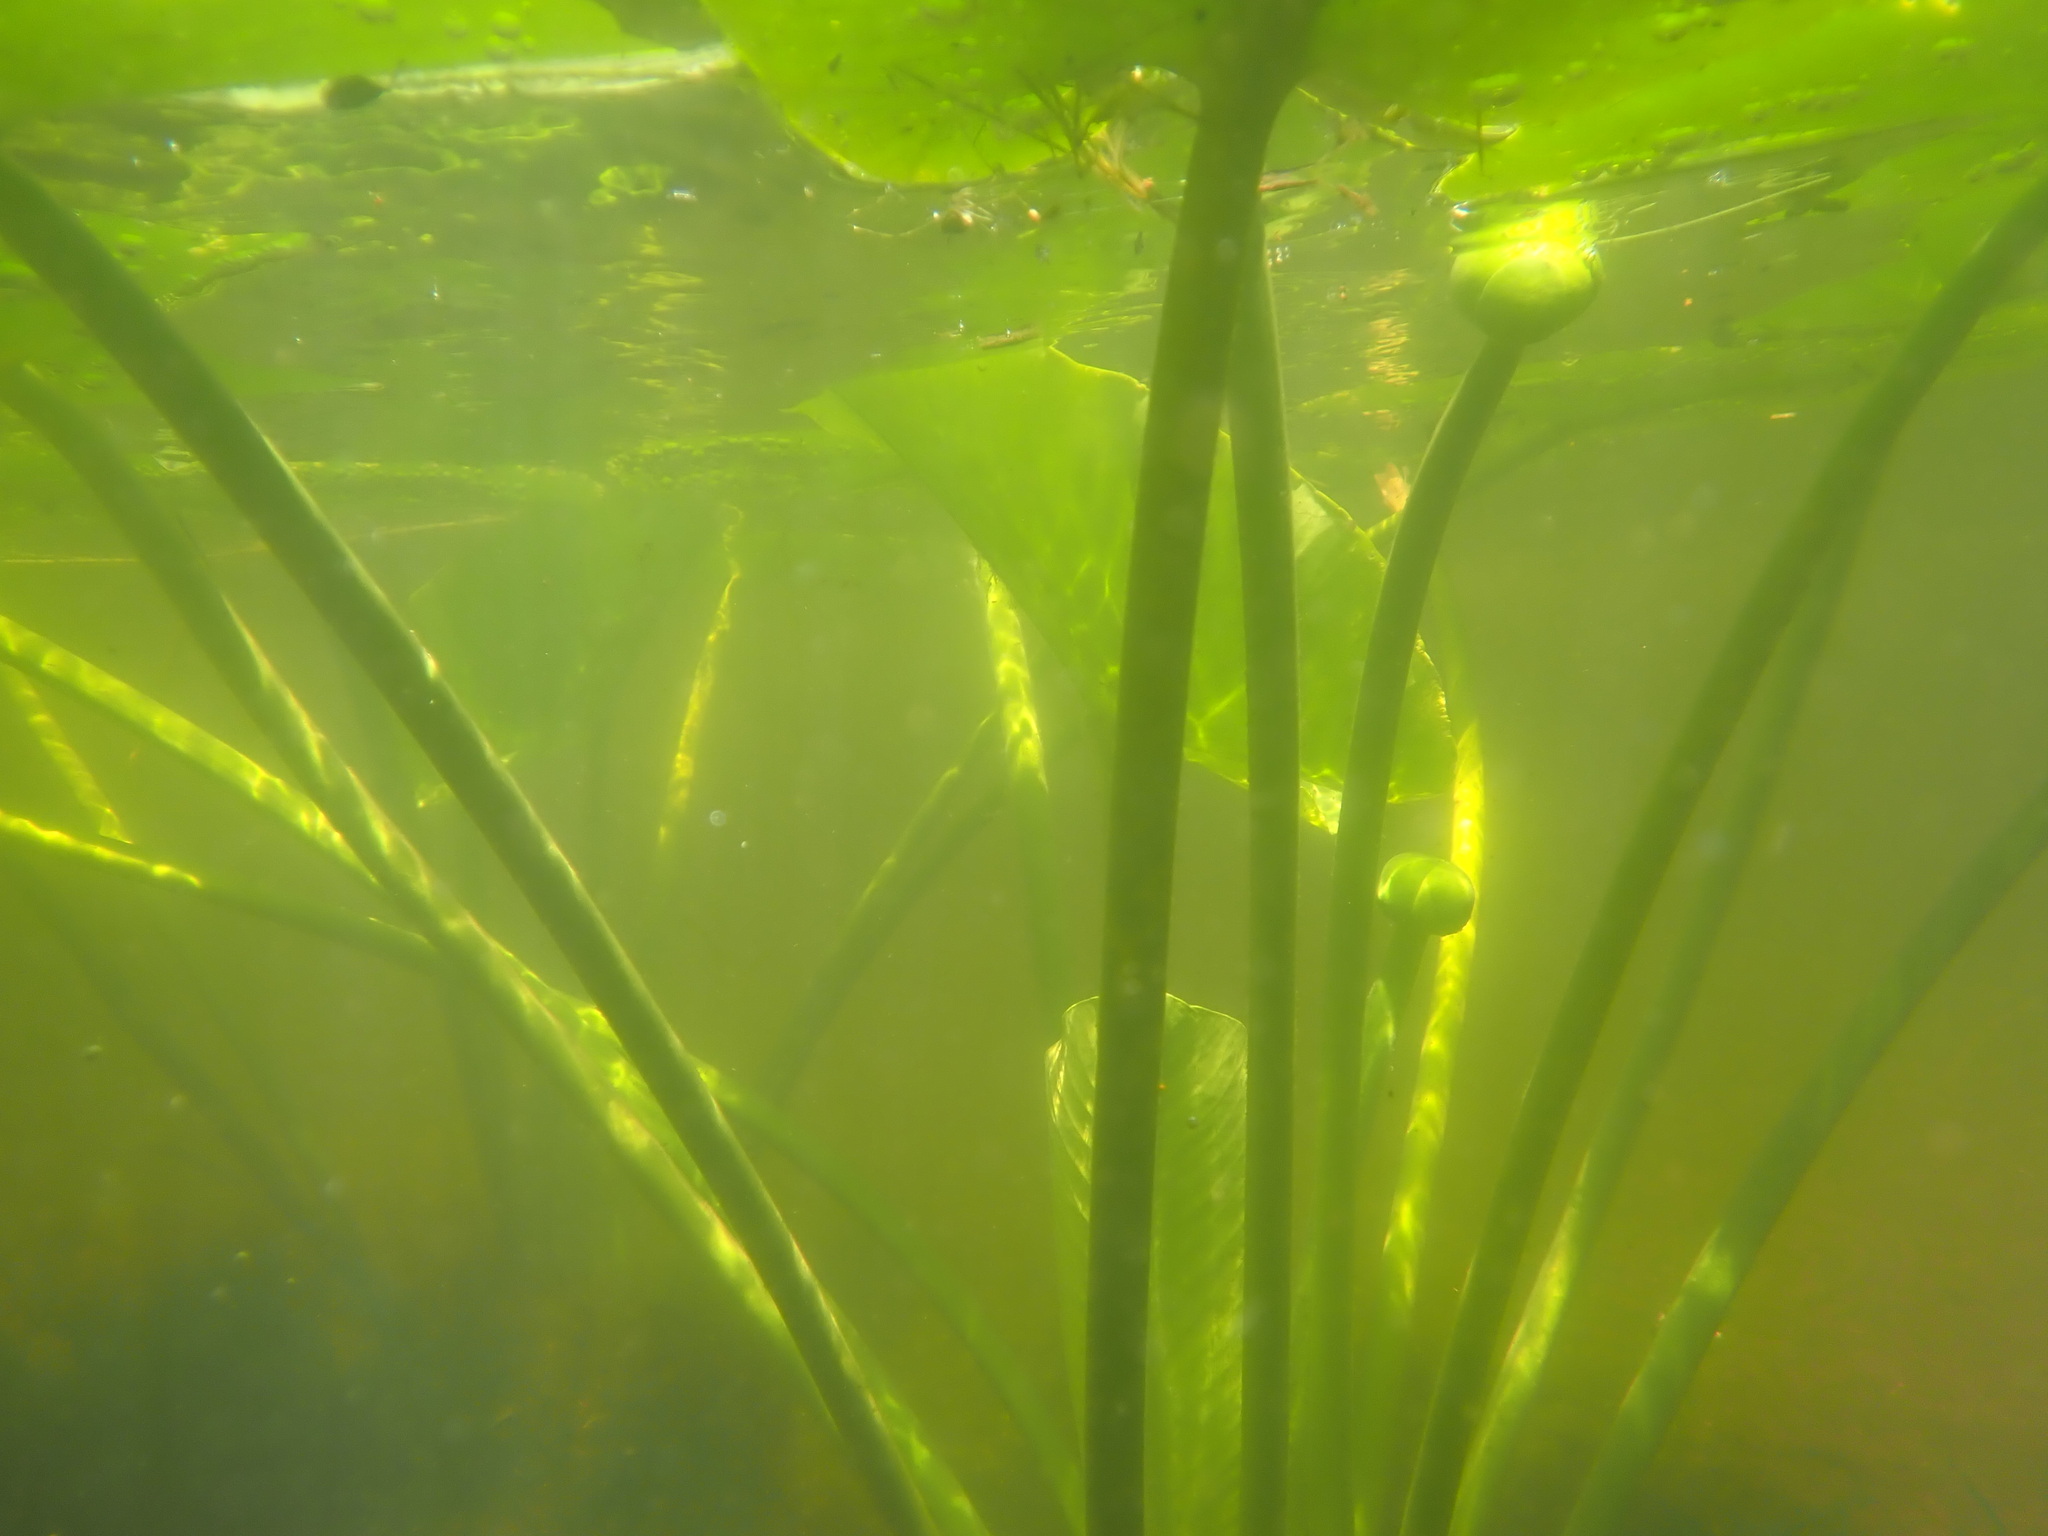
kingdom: Plantae
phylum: Tracheophyta
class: Magnoliopsida
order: Nymphaeales
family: Nymphaeaceae
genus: Nuphar
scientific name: Nuphar polysepala
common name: Rocky mountain cow-lily
